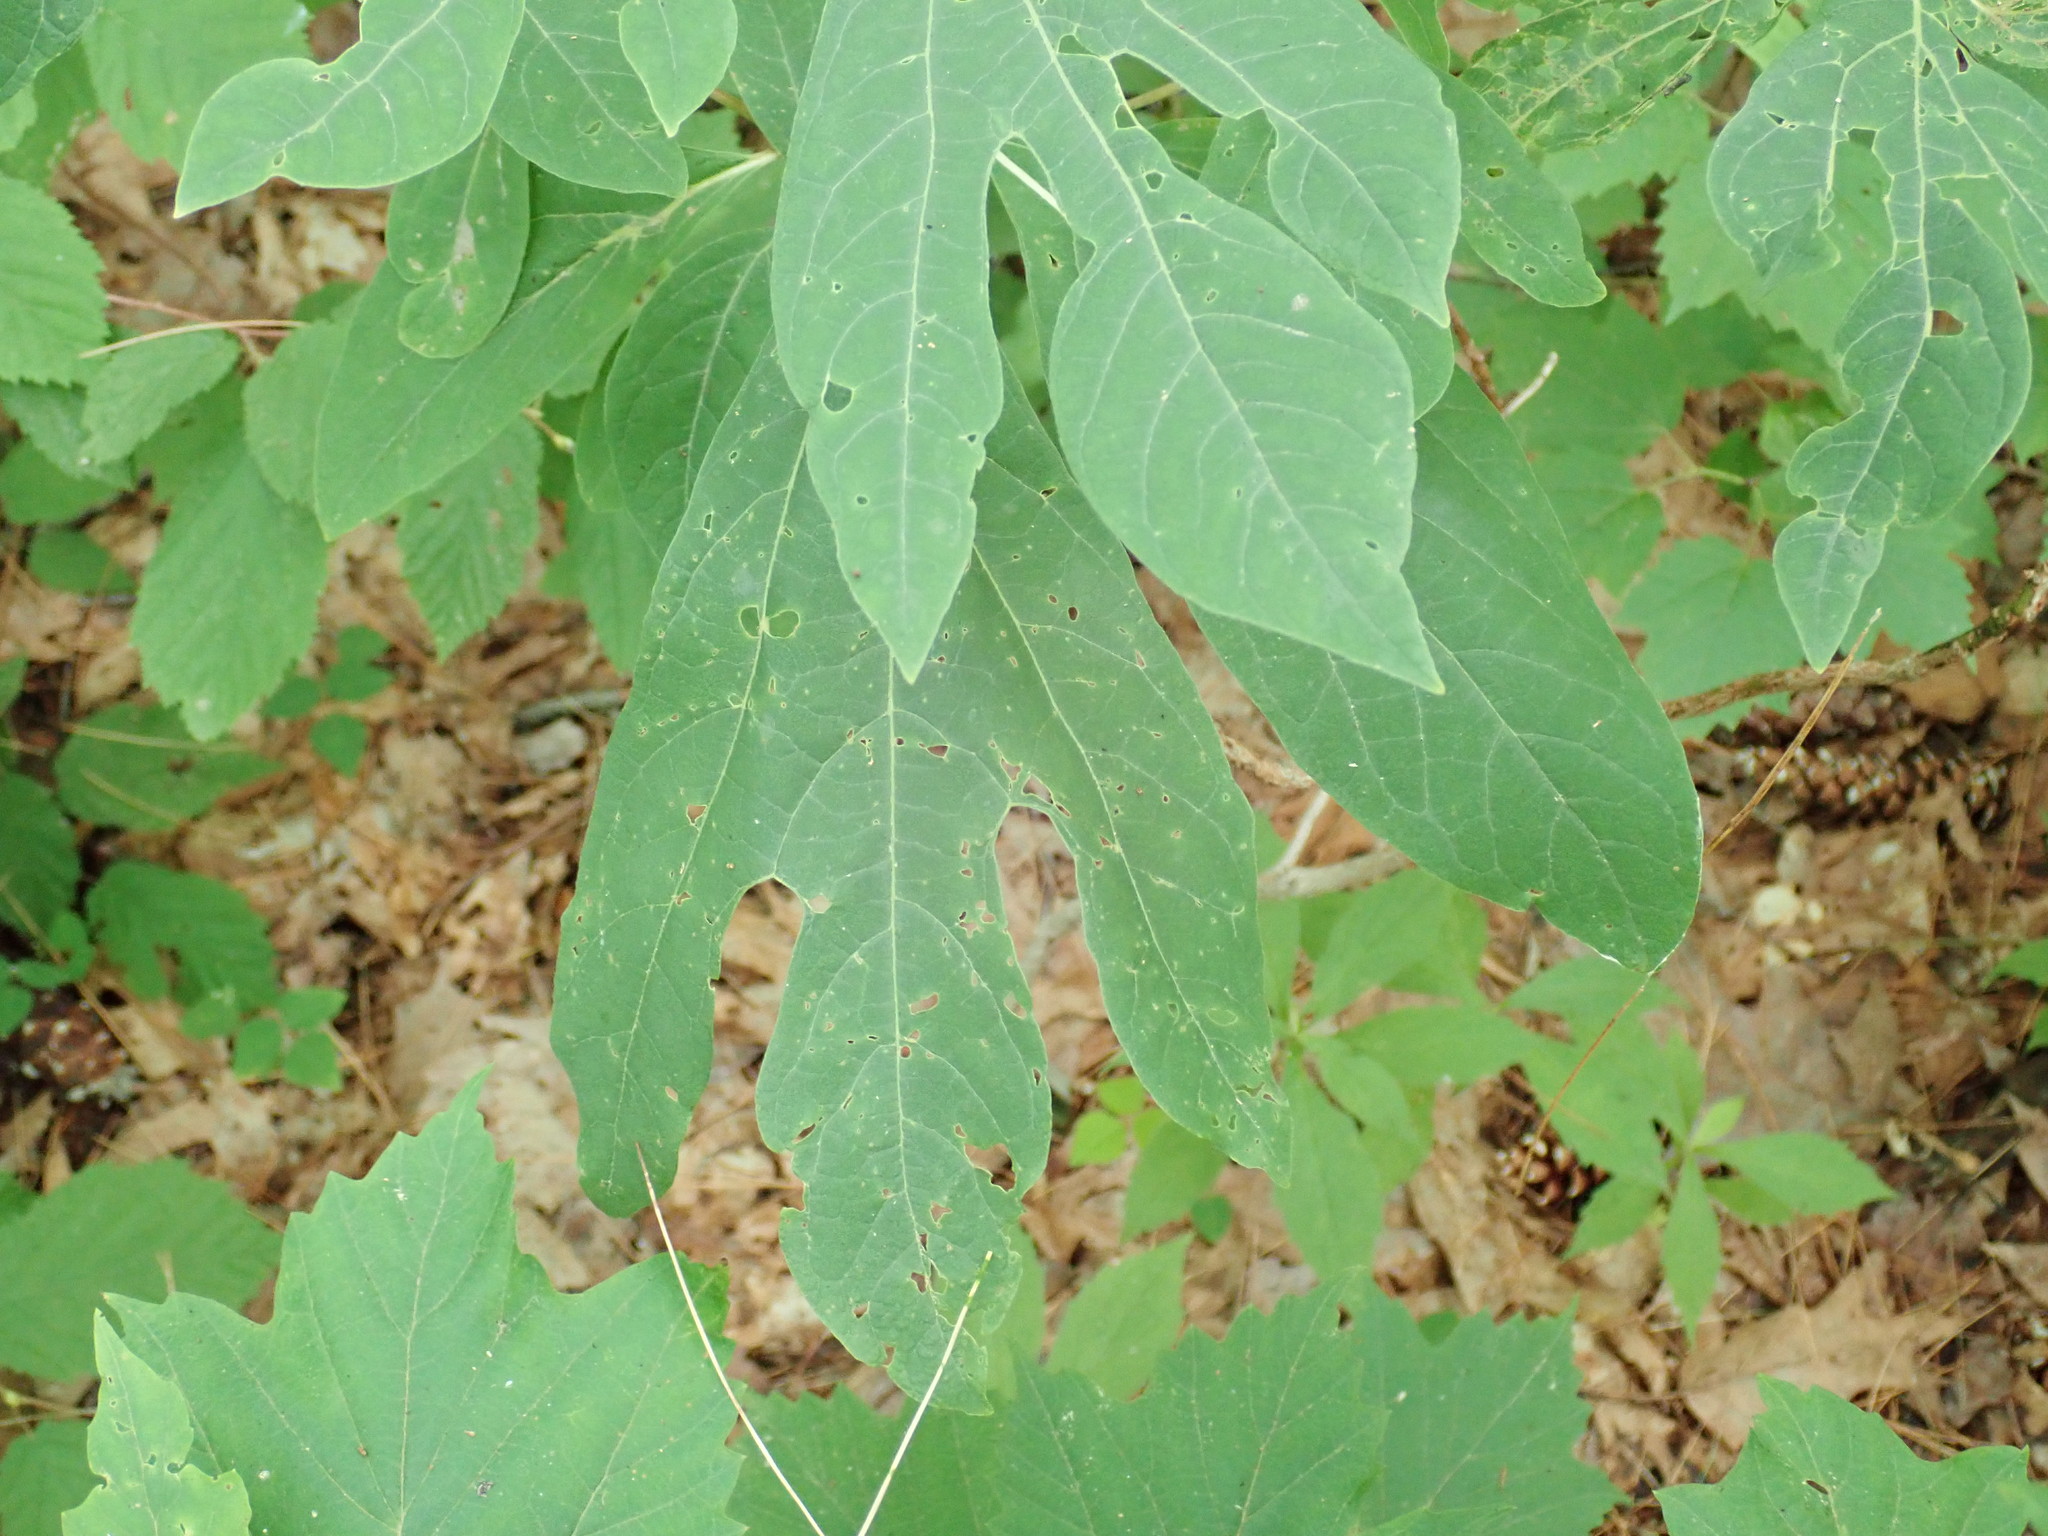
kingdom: Plantae
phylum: Tracheophyta
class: Magnoliopsida
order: Laurales
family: Lauraceae
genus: Sassafras
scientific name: Sassafras albidum
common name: Sassafras
